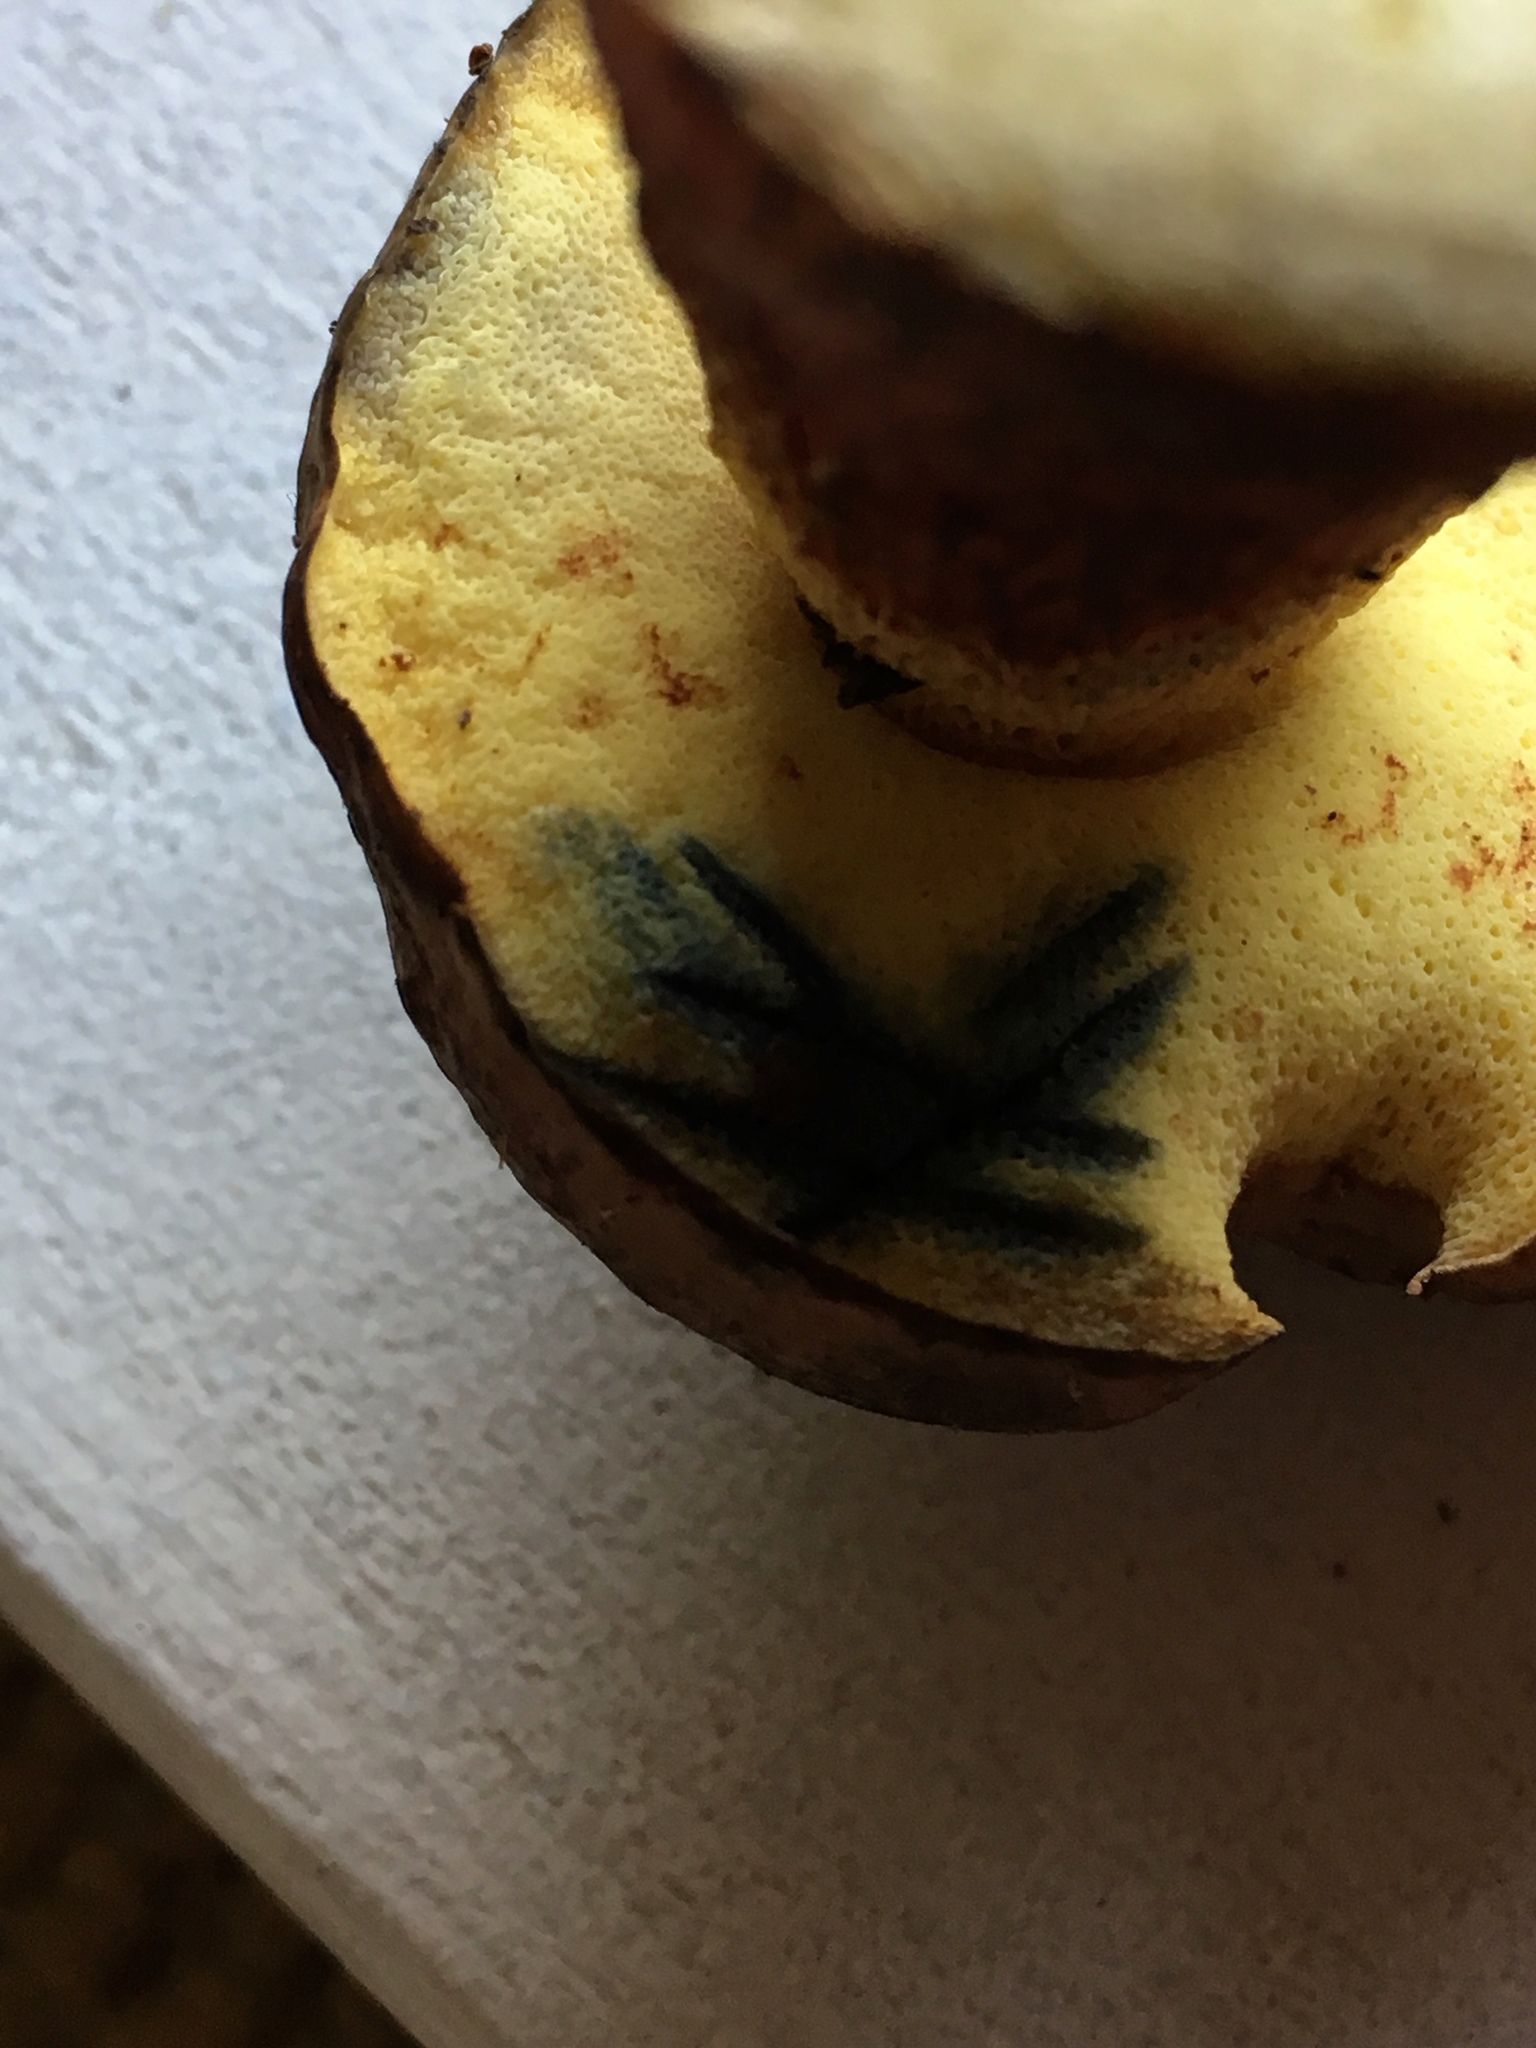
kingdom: Fungi
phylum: Basidiomycota
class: Agaricomycetes
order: Boletales
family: Boletaceae
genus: Boletus
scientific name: Boletus billieae
